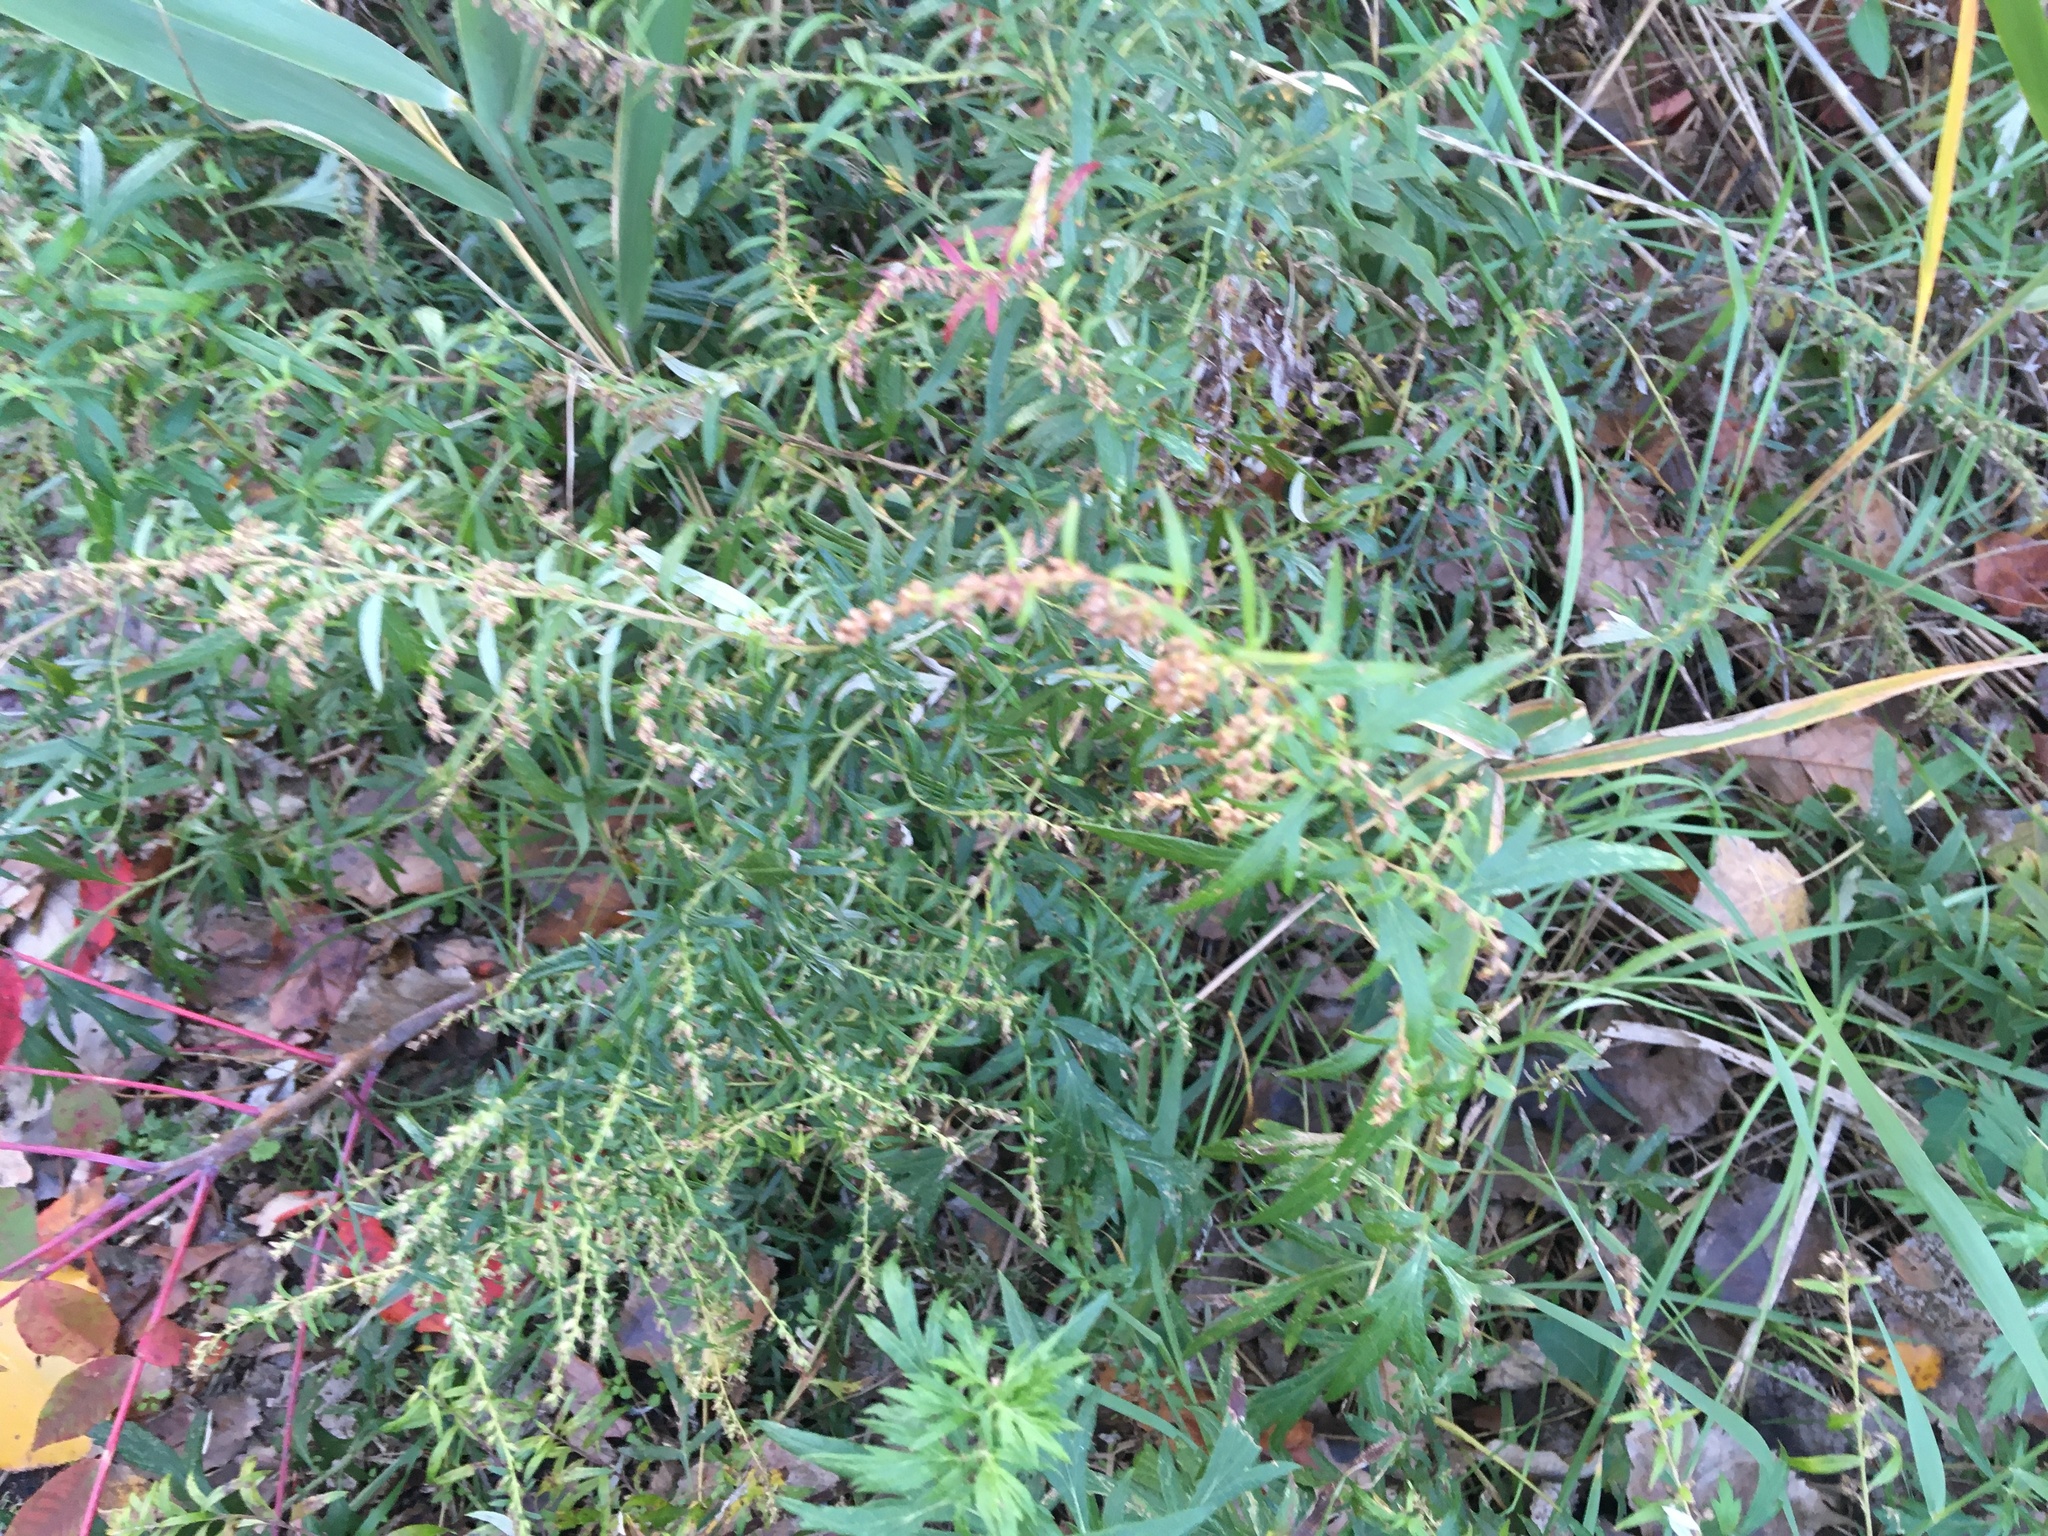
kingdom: Plantae
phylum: Tracheophyta
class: Magnoliopsida
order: Asterales
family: Asteraceae
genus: Artemisia
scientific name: Artemisia vulgaris
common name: Mugwort
